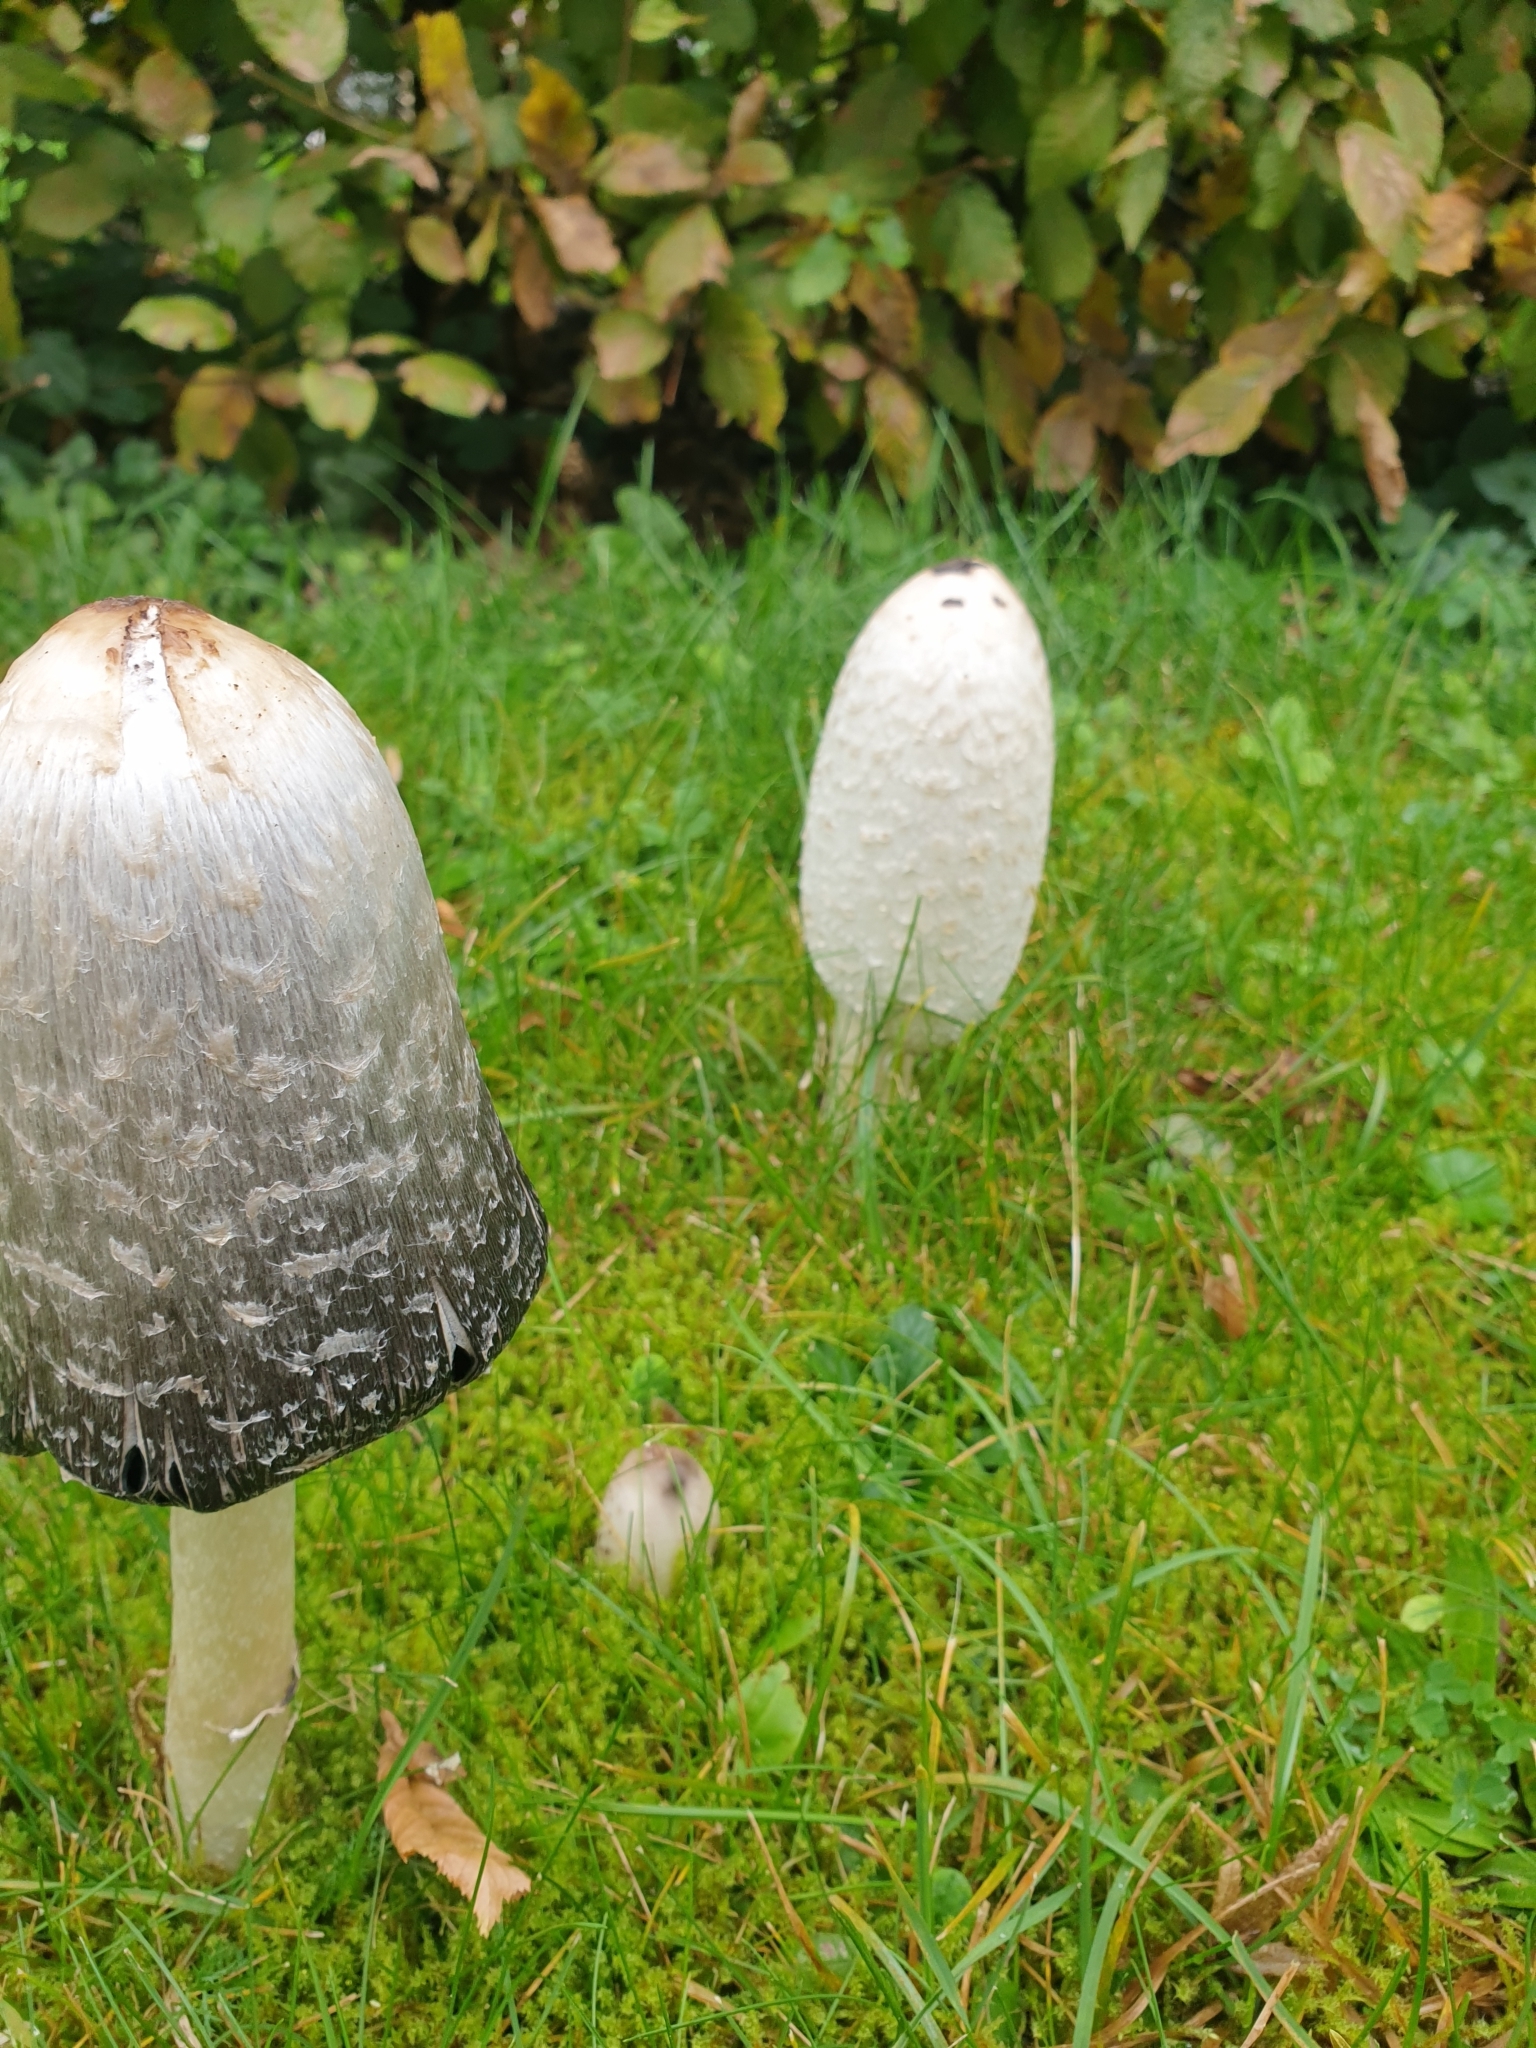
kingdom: Fungi
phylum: Basidiomycota
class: Agaricomycetes
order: Agaricales
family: Agaricaceae
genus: Coprinus
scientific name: Coprinus comatus
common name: Lawyer's wig
